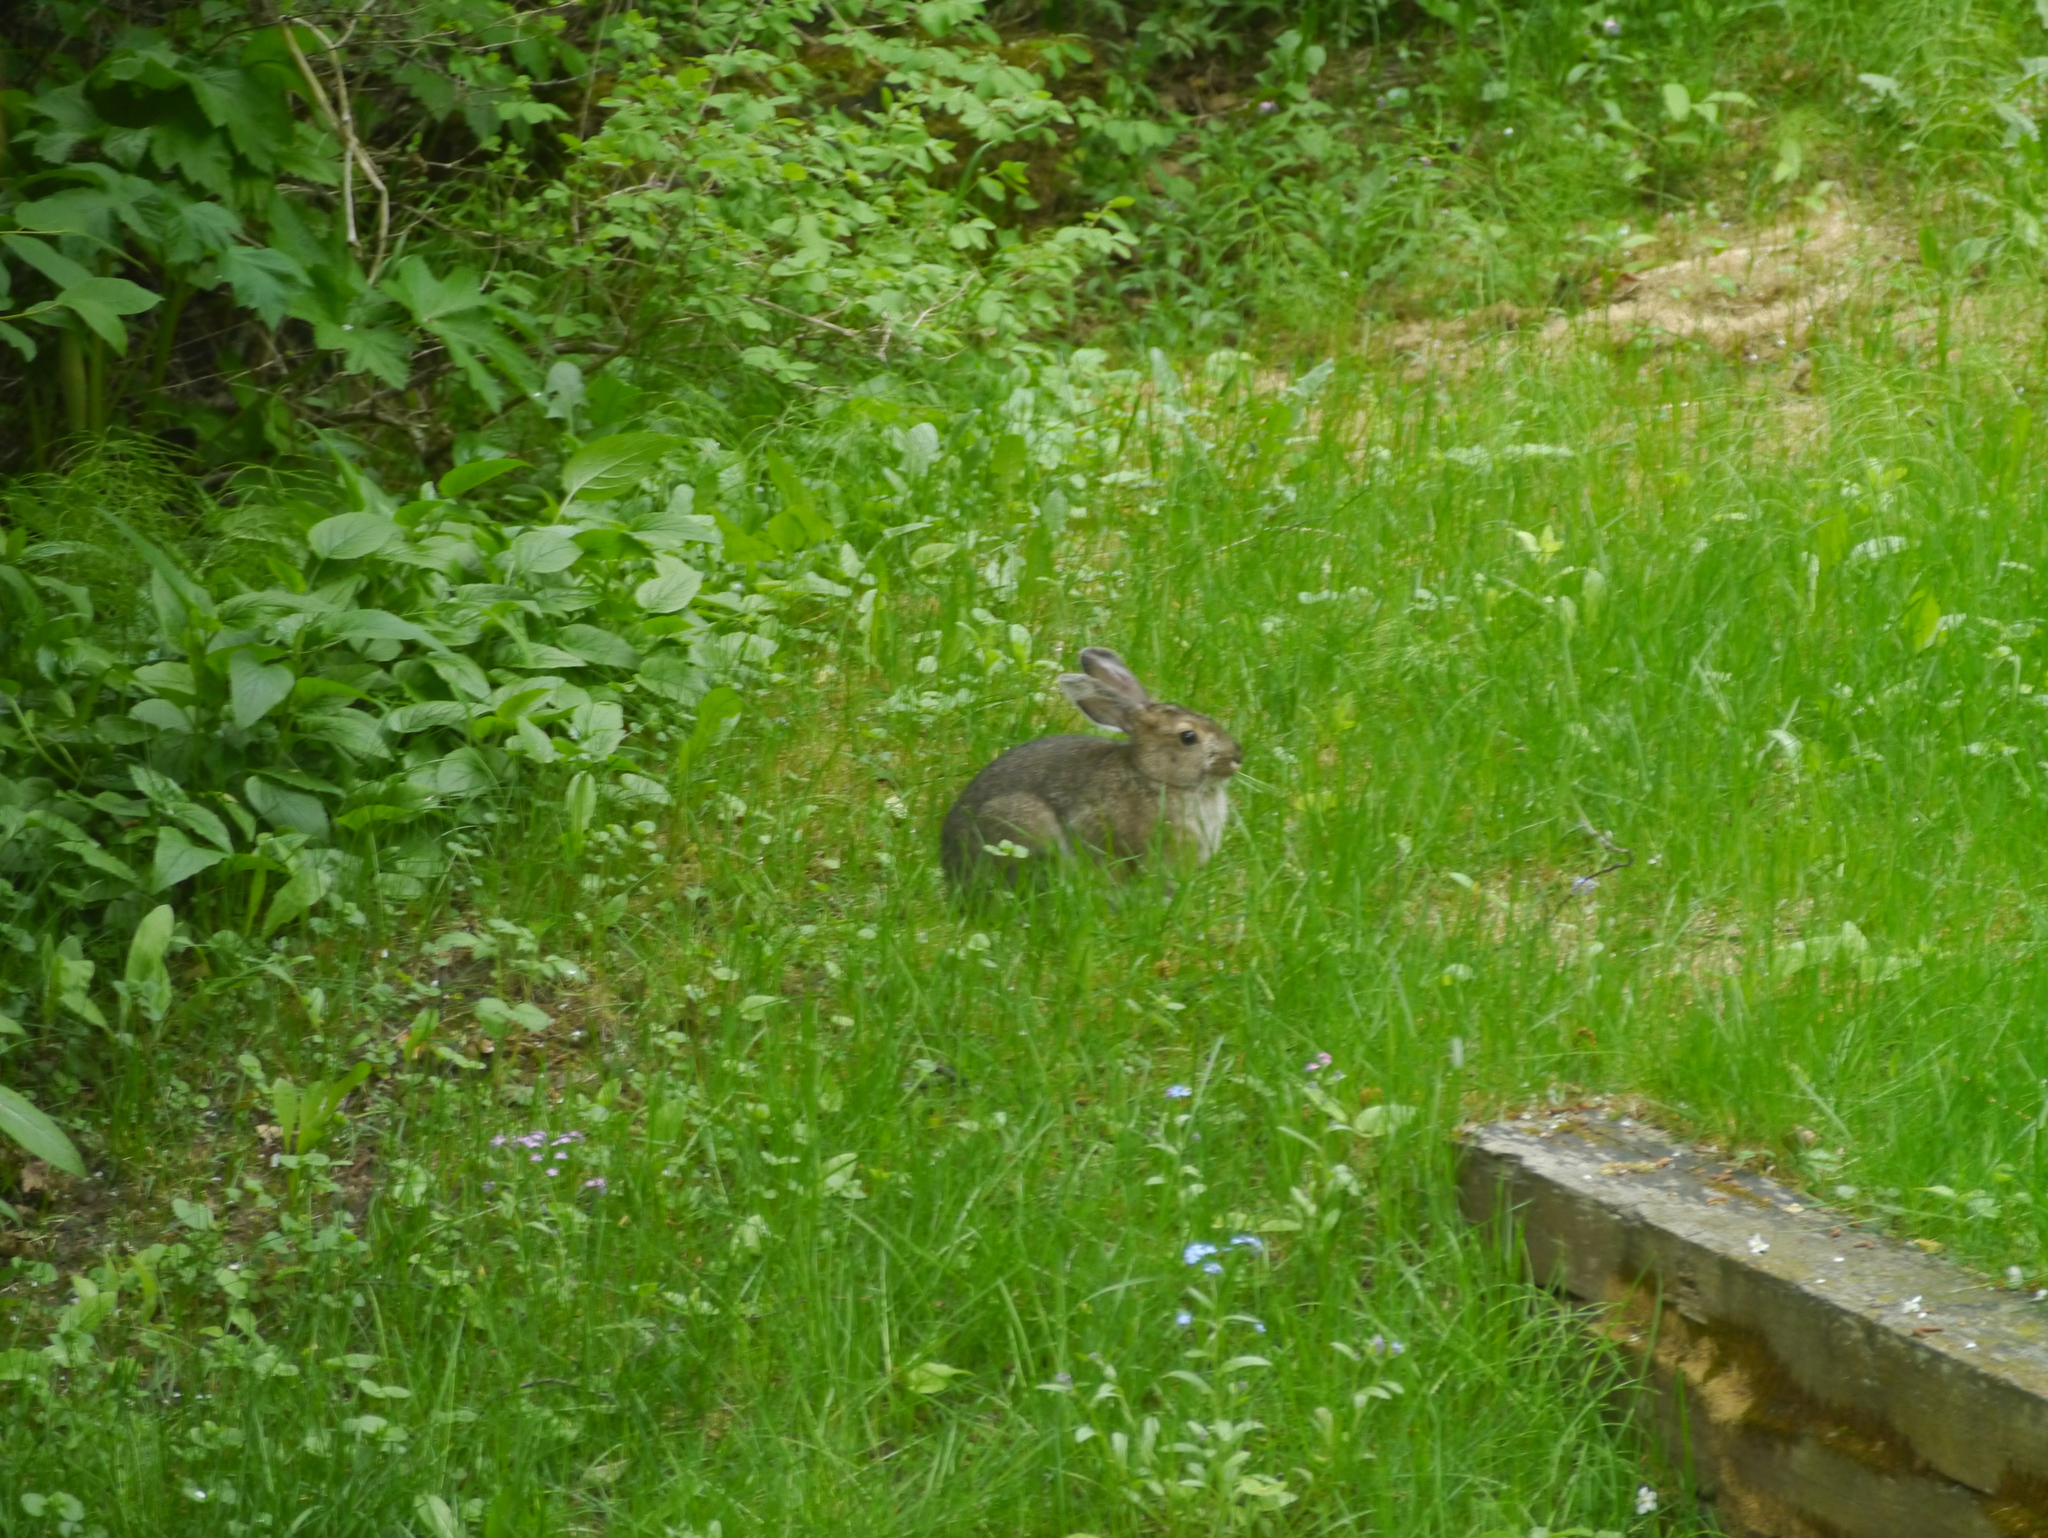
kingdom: Animalia
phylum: Chordata
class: Mammalia
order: Lagomorpha
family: Leporidae
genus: Lepus
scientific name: Lepus americanus
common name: Snowshoe hare
